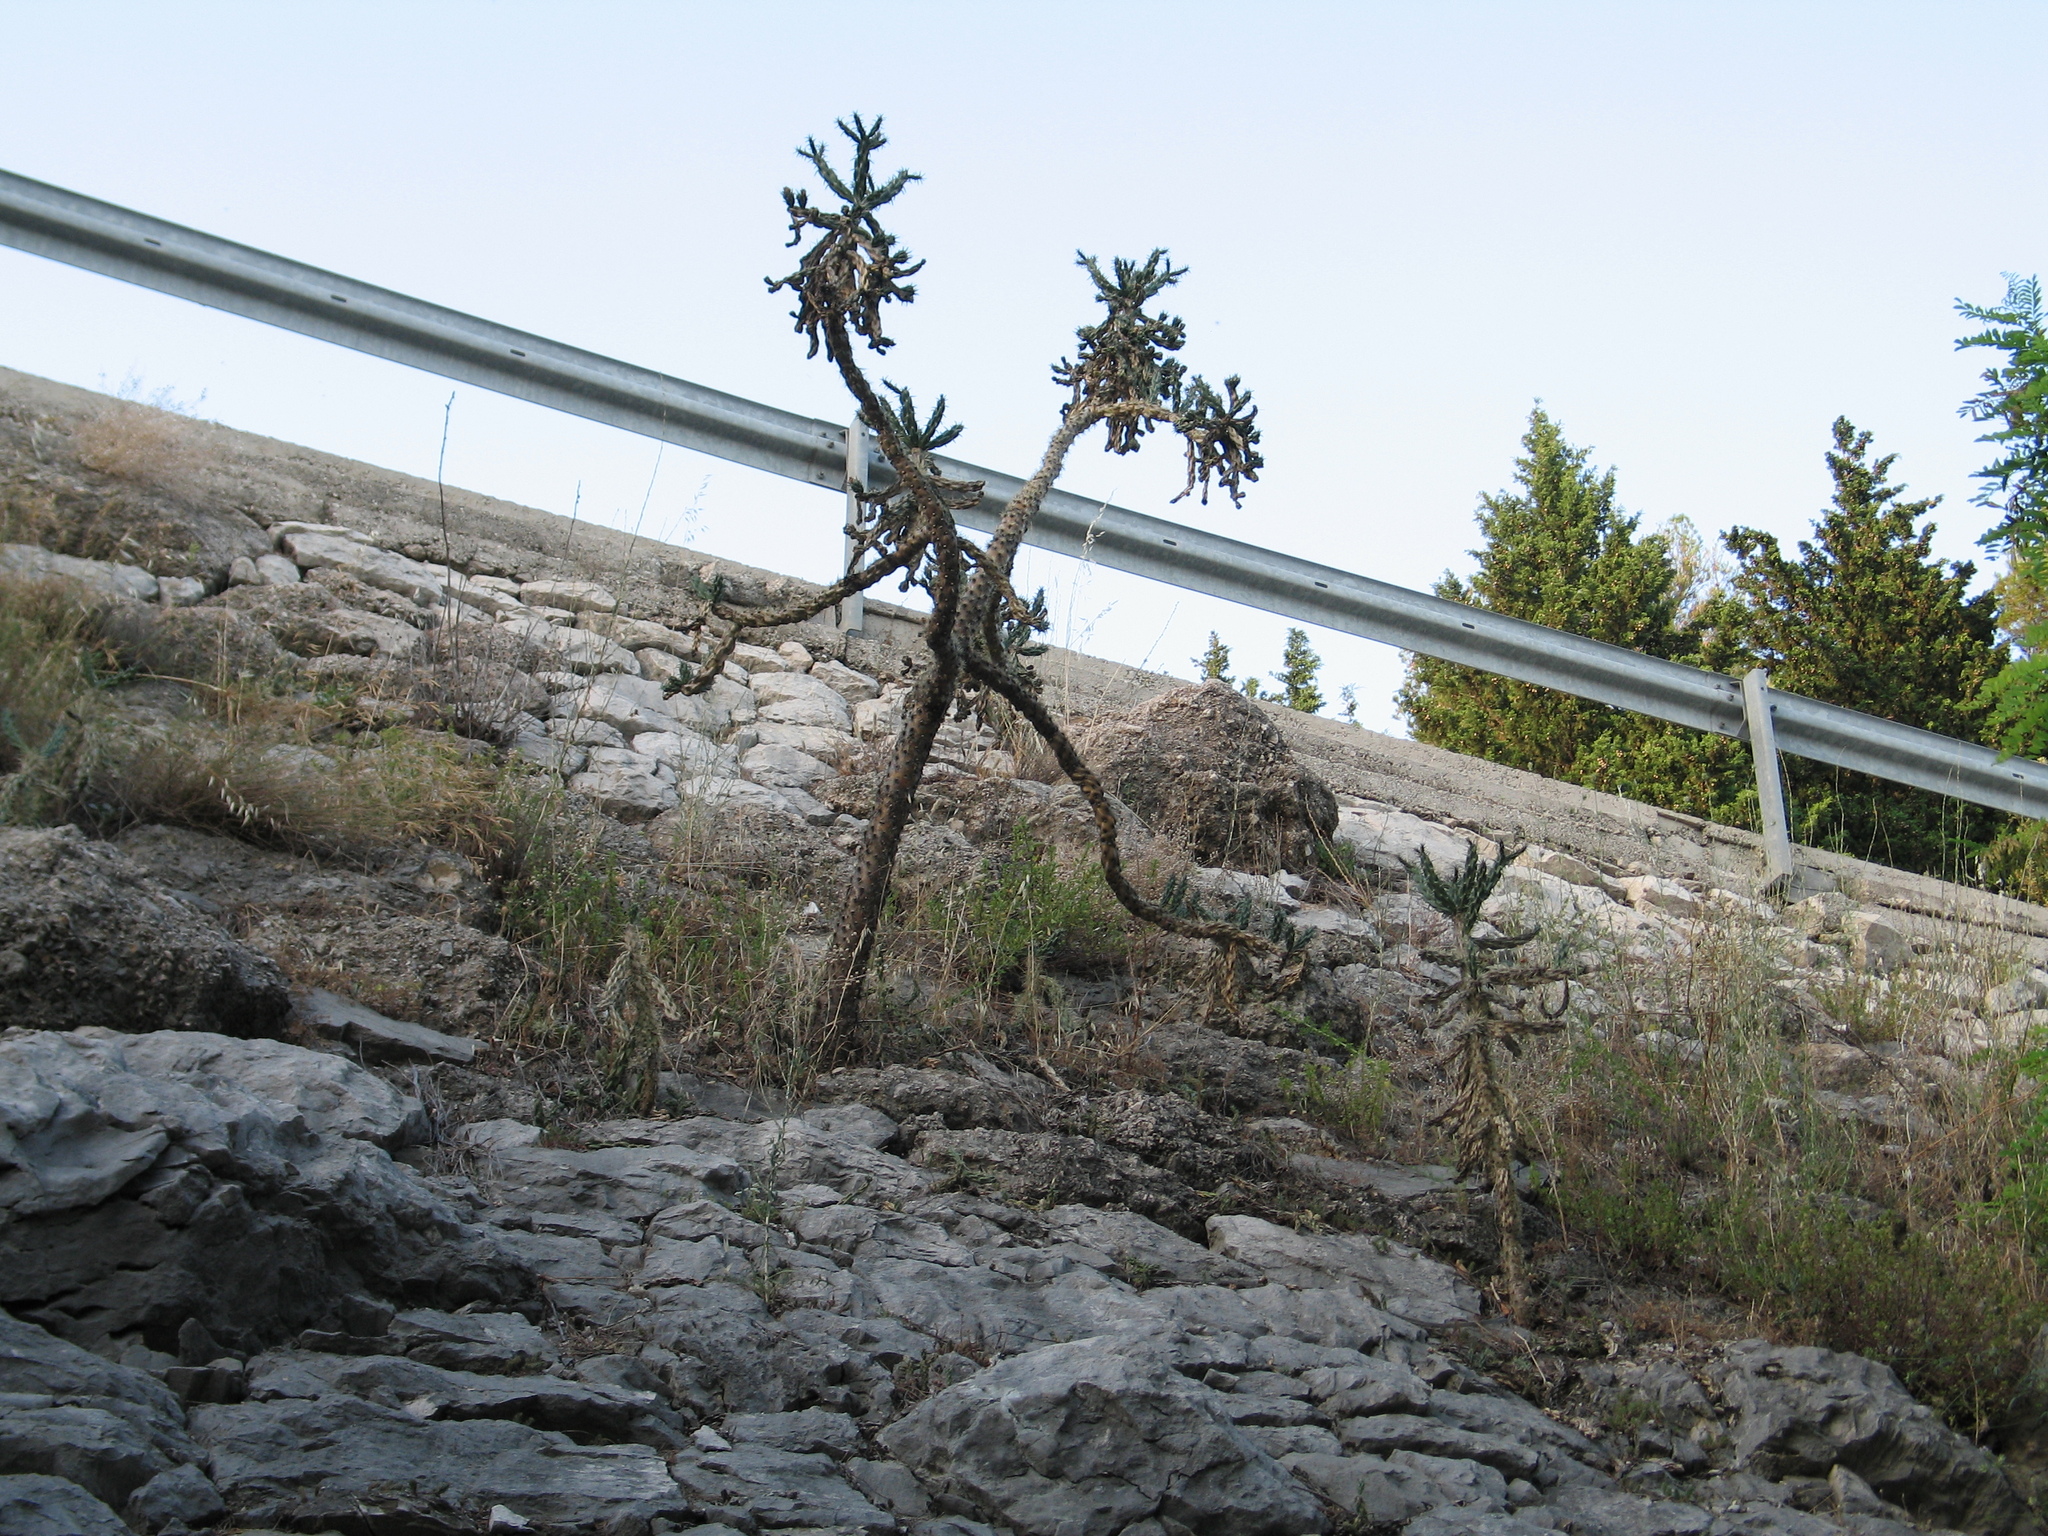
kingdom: Plantae
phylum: Tracheophyta
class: Magnoliopsida
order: Caryophyllales
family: Cactaceae
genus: Cylindropuntia
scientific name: Cylindropuntia imbricata
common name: Candelabrum cactus
